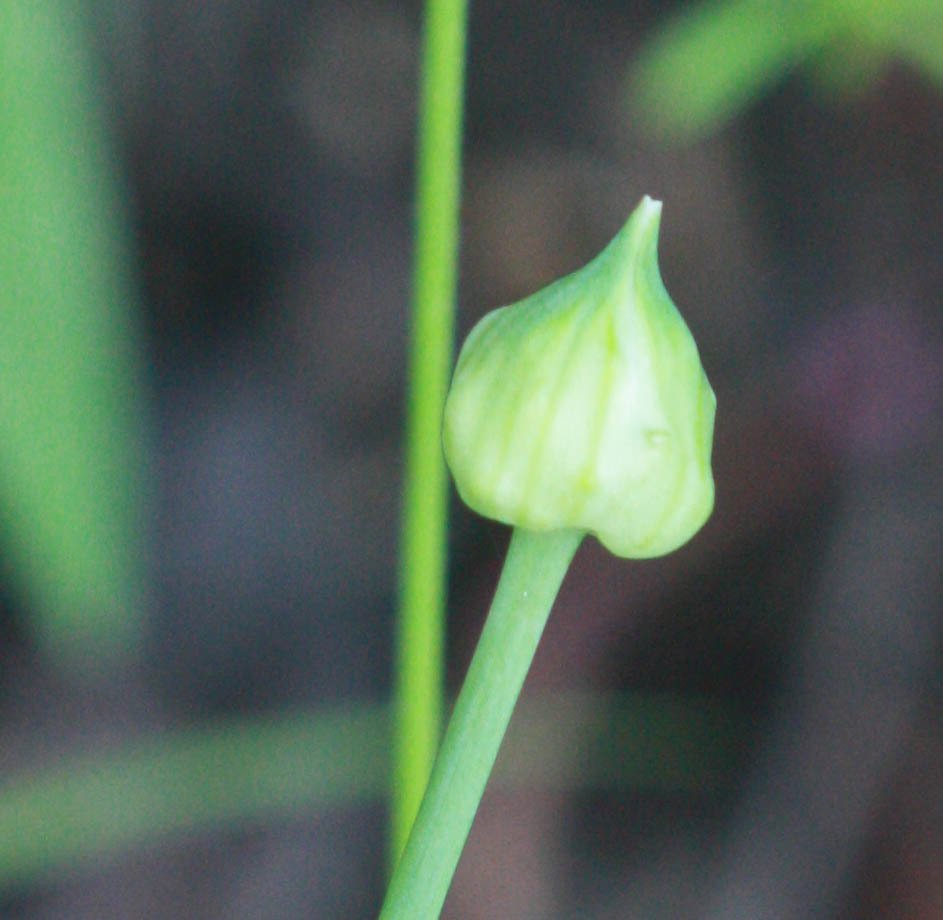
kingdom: Plantae
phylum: Tracheophyta
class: Liliopsida
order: Asparagales
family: Amaryllidaceae
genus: Allium
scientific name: Allium canadense
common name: Meadow garlic
